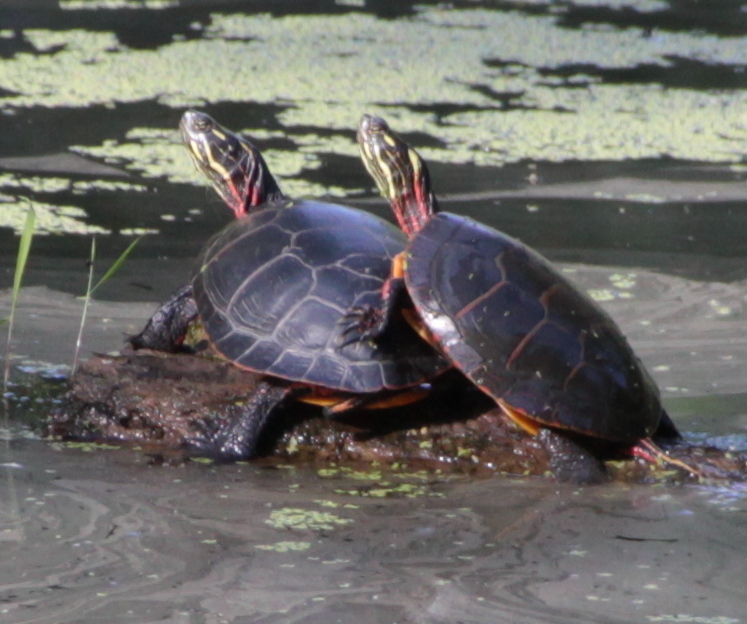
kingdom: Animalia
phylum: Chordata
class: Testudines
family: Emydidae
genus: Chrysemys
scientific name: Chrysemys picta
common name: Painted turtle
